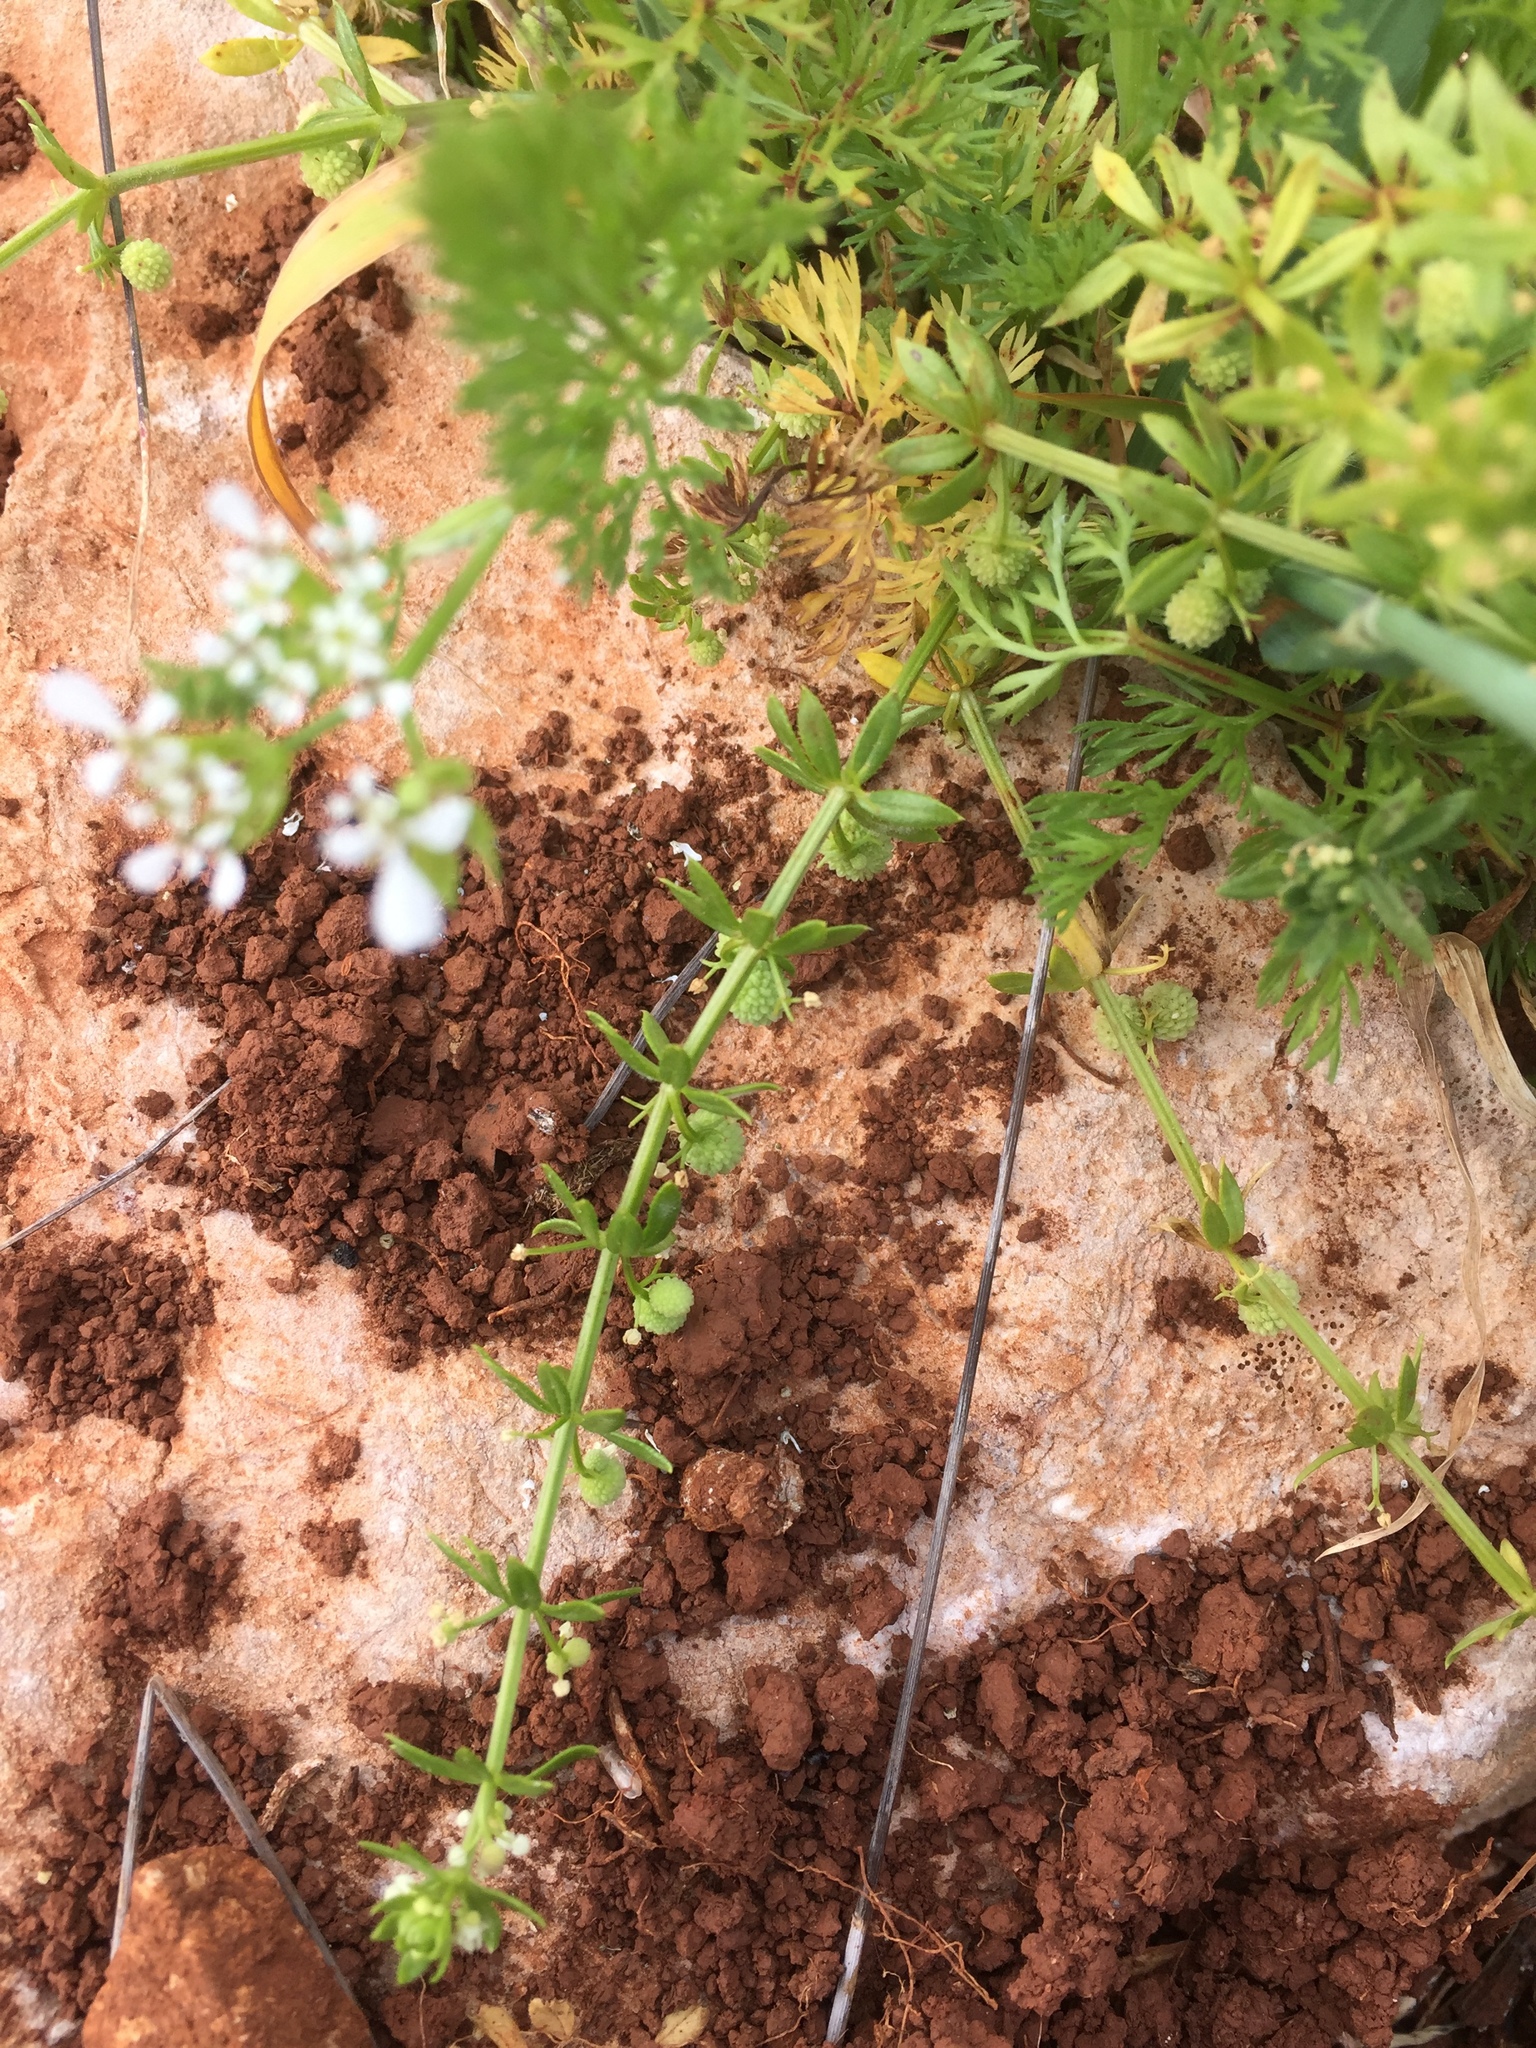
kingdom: Plantae
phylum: Tracheophyta
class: Magnoliopsida
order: Gentianales
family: Rubiaceae
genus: Galium
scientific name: Galium verrucosum
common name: Warty bedstraw
